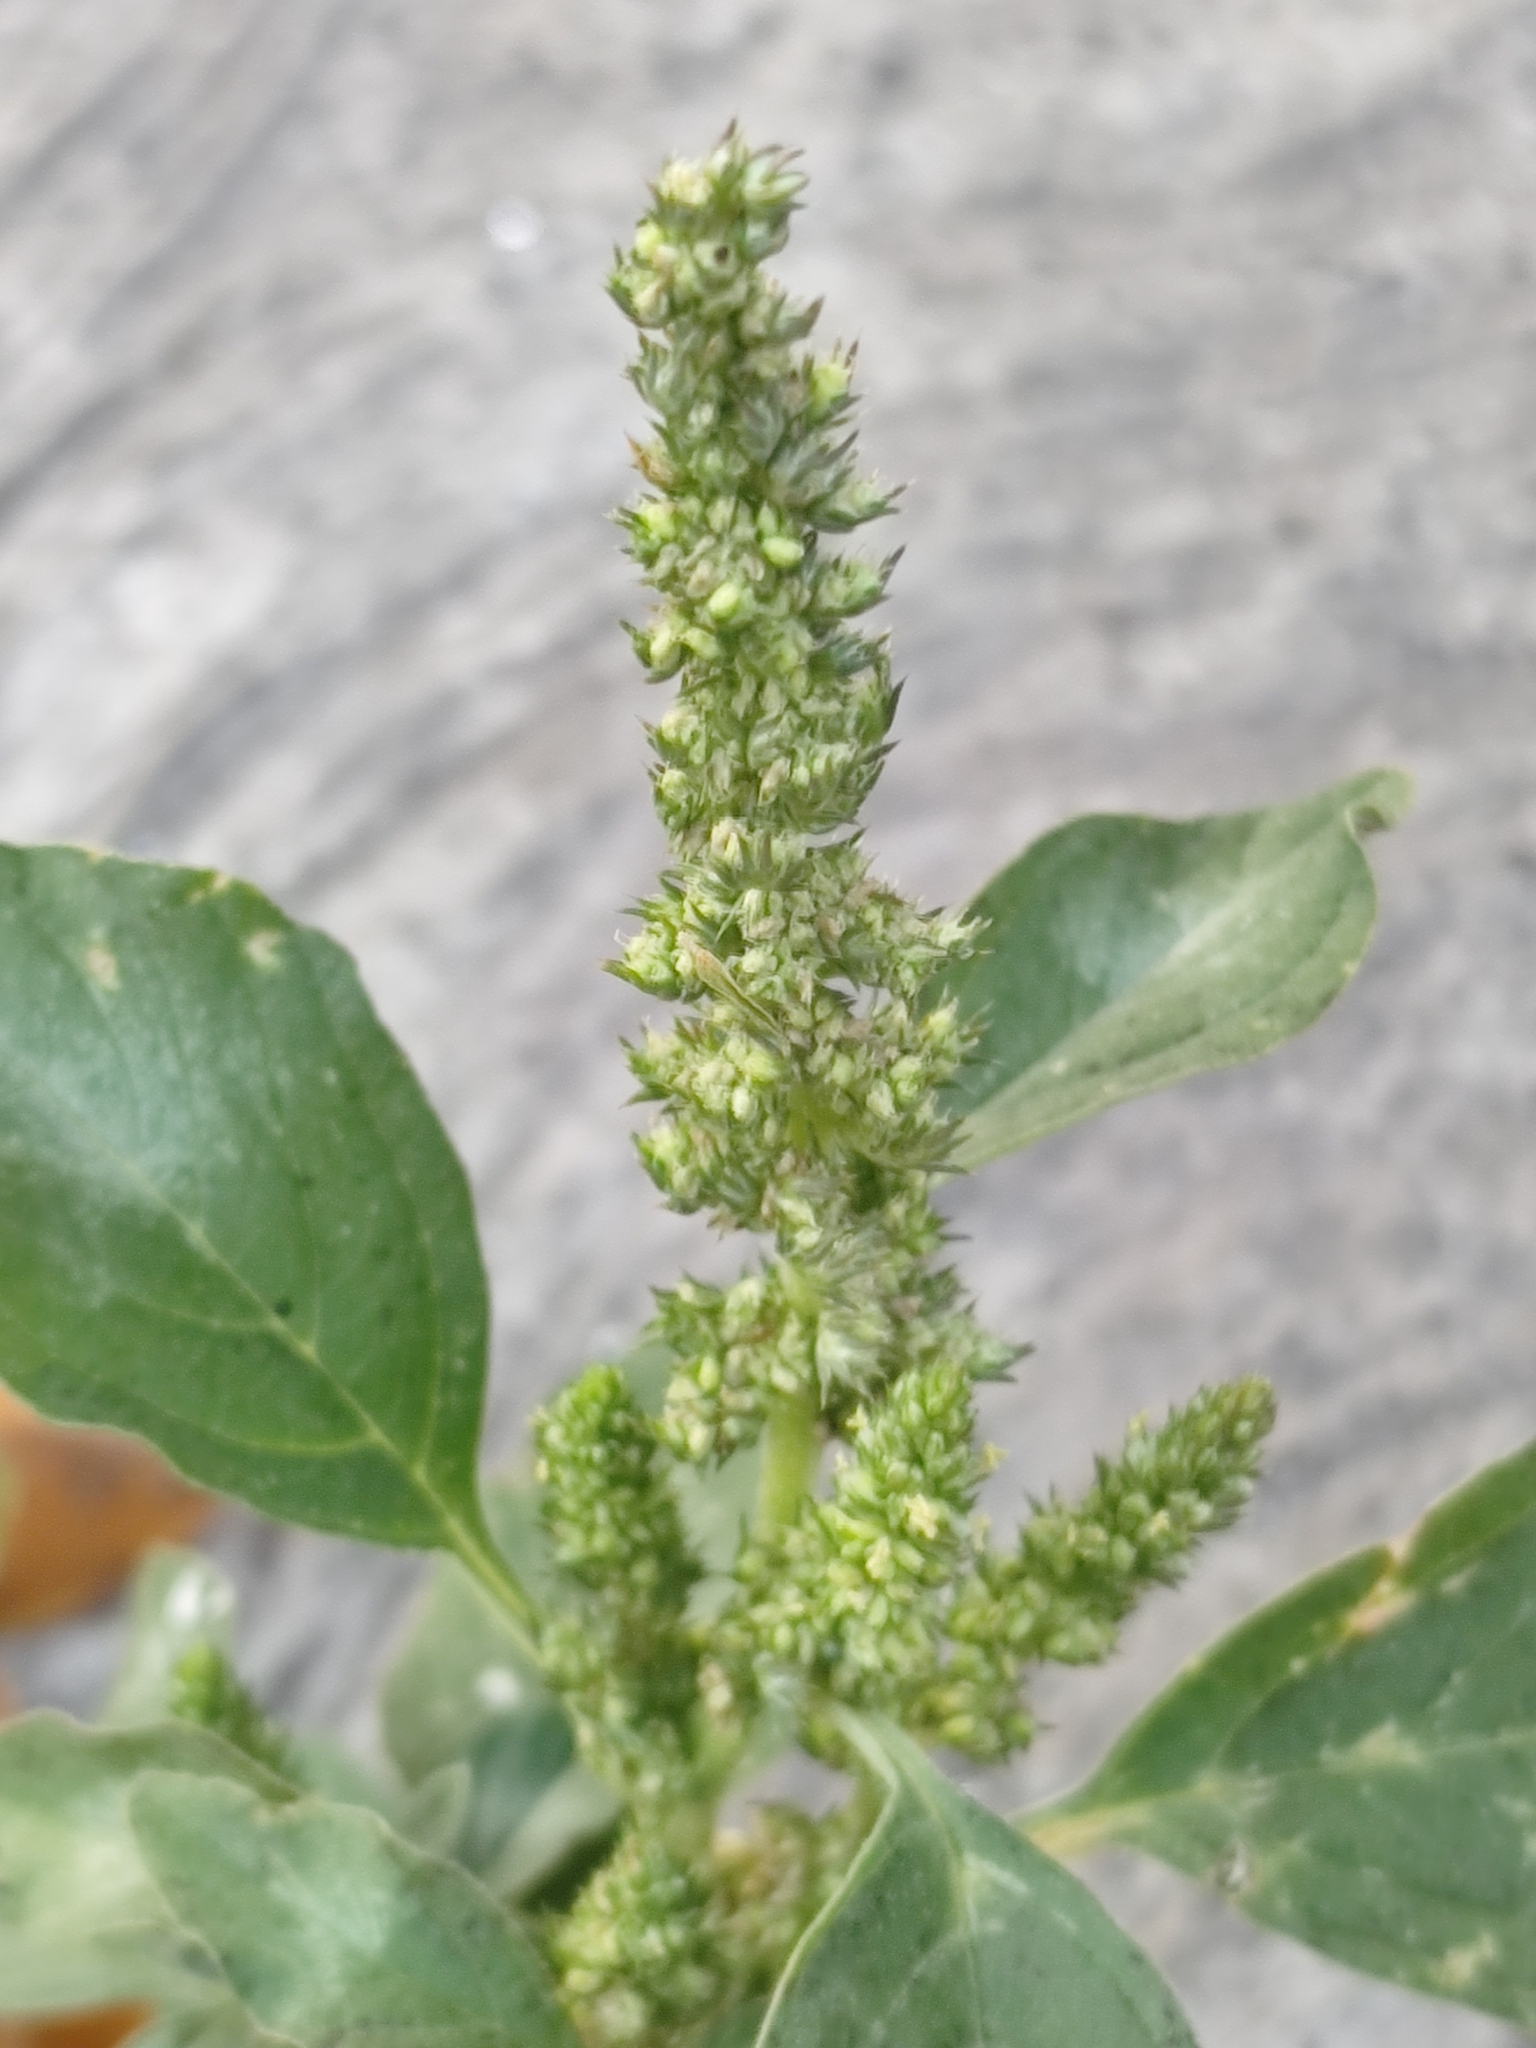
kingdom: Plantae
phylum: Tracheophyta
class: Magnoliopsida
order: Caryophyllales
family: Amaranthaceae
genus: Amaranthus
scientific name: Amaranthus hybridus
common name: Green amaranth
